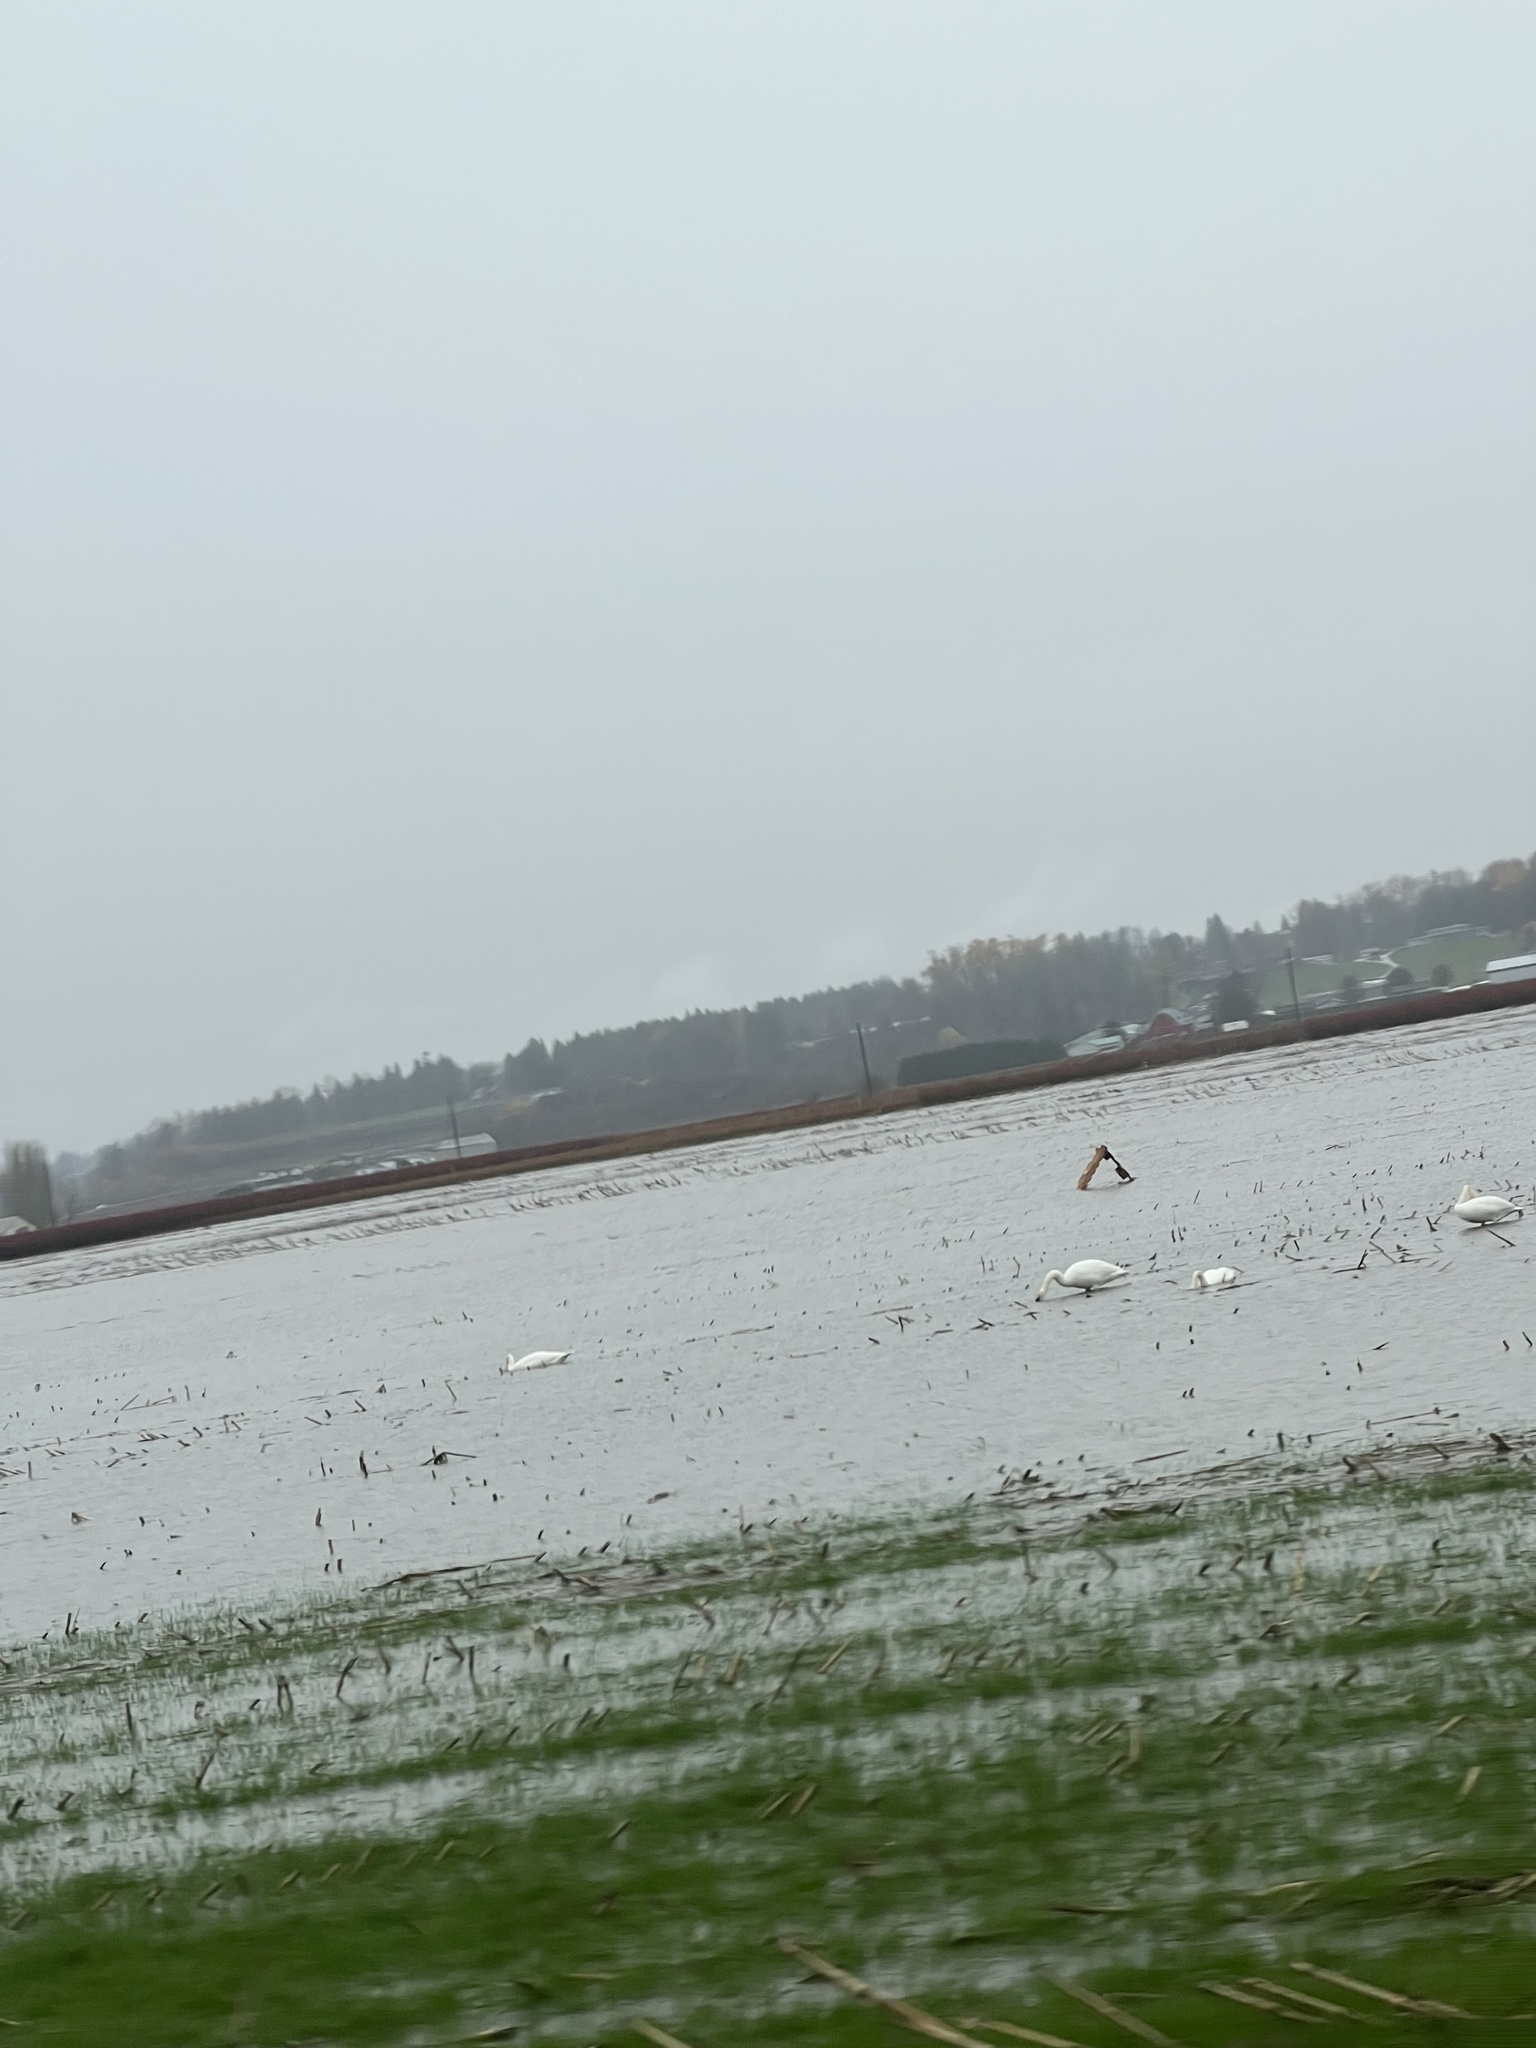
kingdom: Animalia
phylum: Chordata
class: Aves
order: Anseriformes
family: Anatidae
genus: Cygnus
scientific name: Cygnus buccinator
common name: Trumpeter swan
